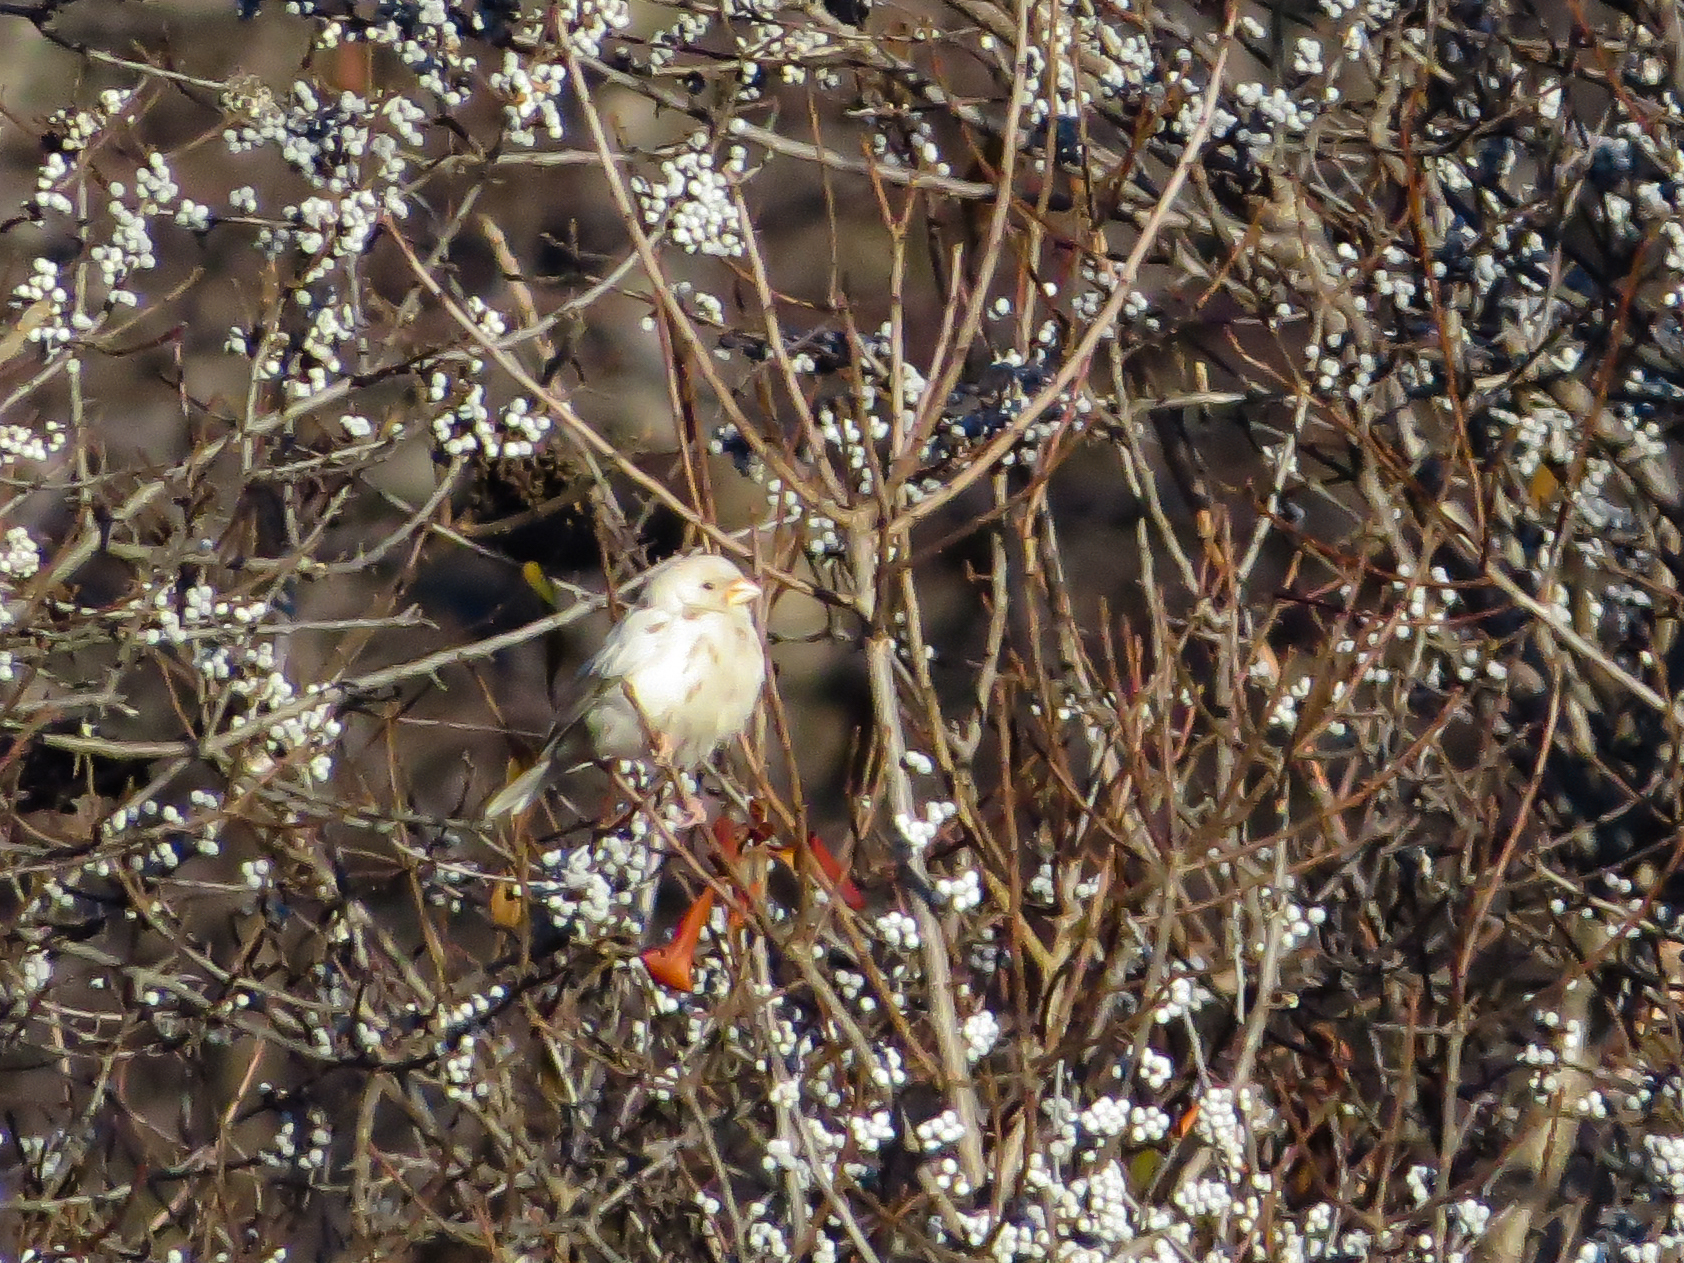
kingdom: Animalia
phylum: Chordata
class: Aves
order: Passeriformes
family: Fringillidae
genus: Haemorhous
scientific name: Haemorhous mexicanus
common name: House finch
